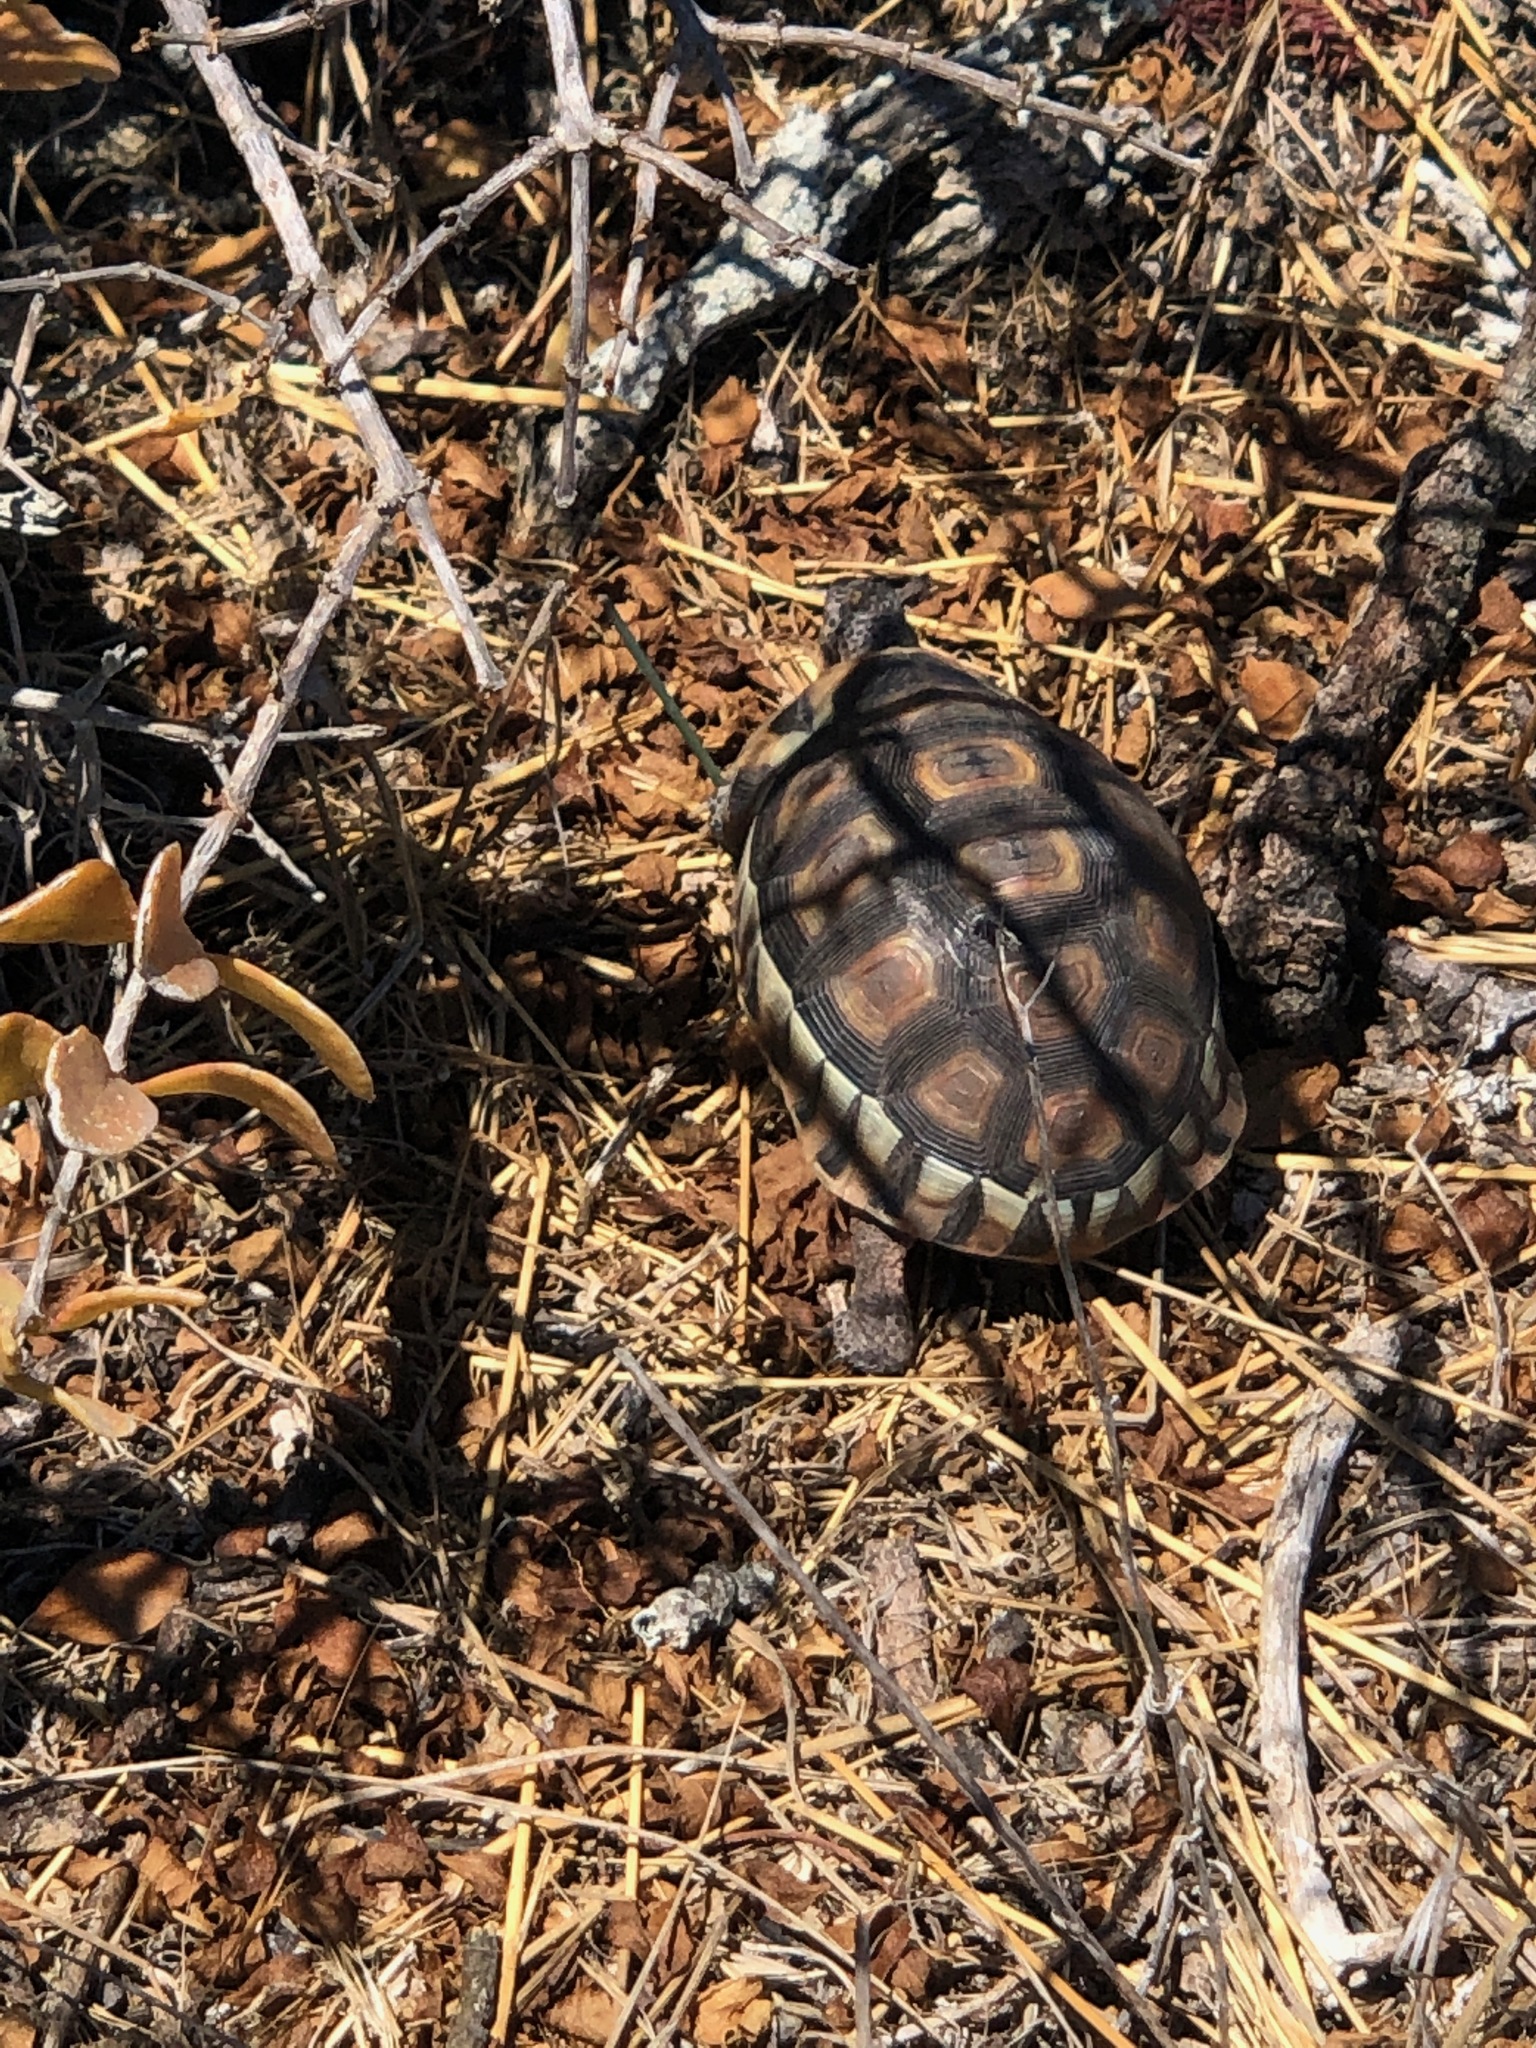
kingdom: Animalia
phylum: Chordata
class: Testudines
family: Testudinidae
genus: Chersina
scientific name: Chersina angulata
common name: South african bowsprit tortoise
